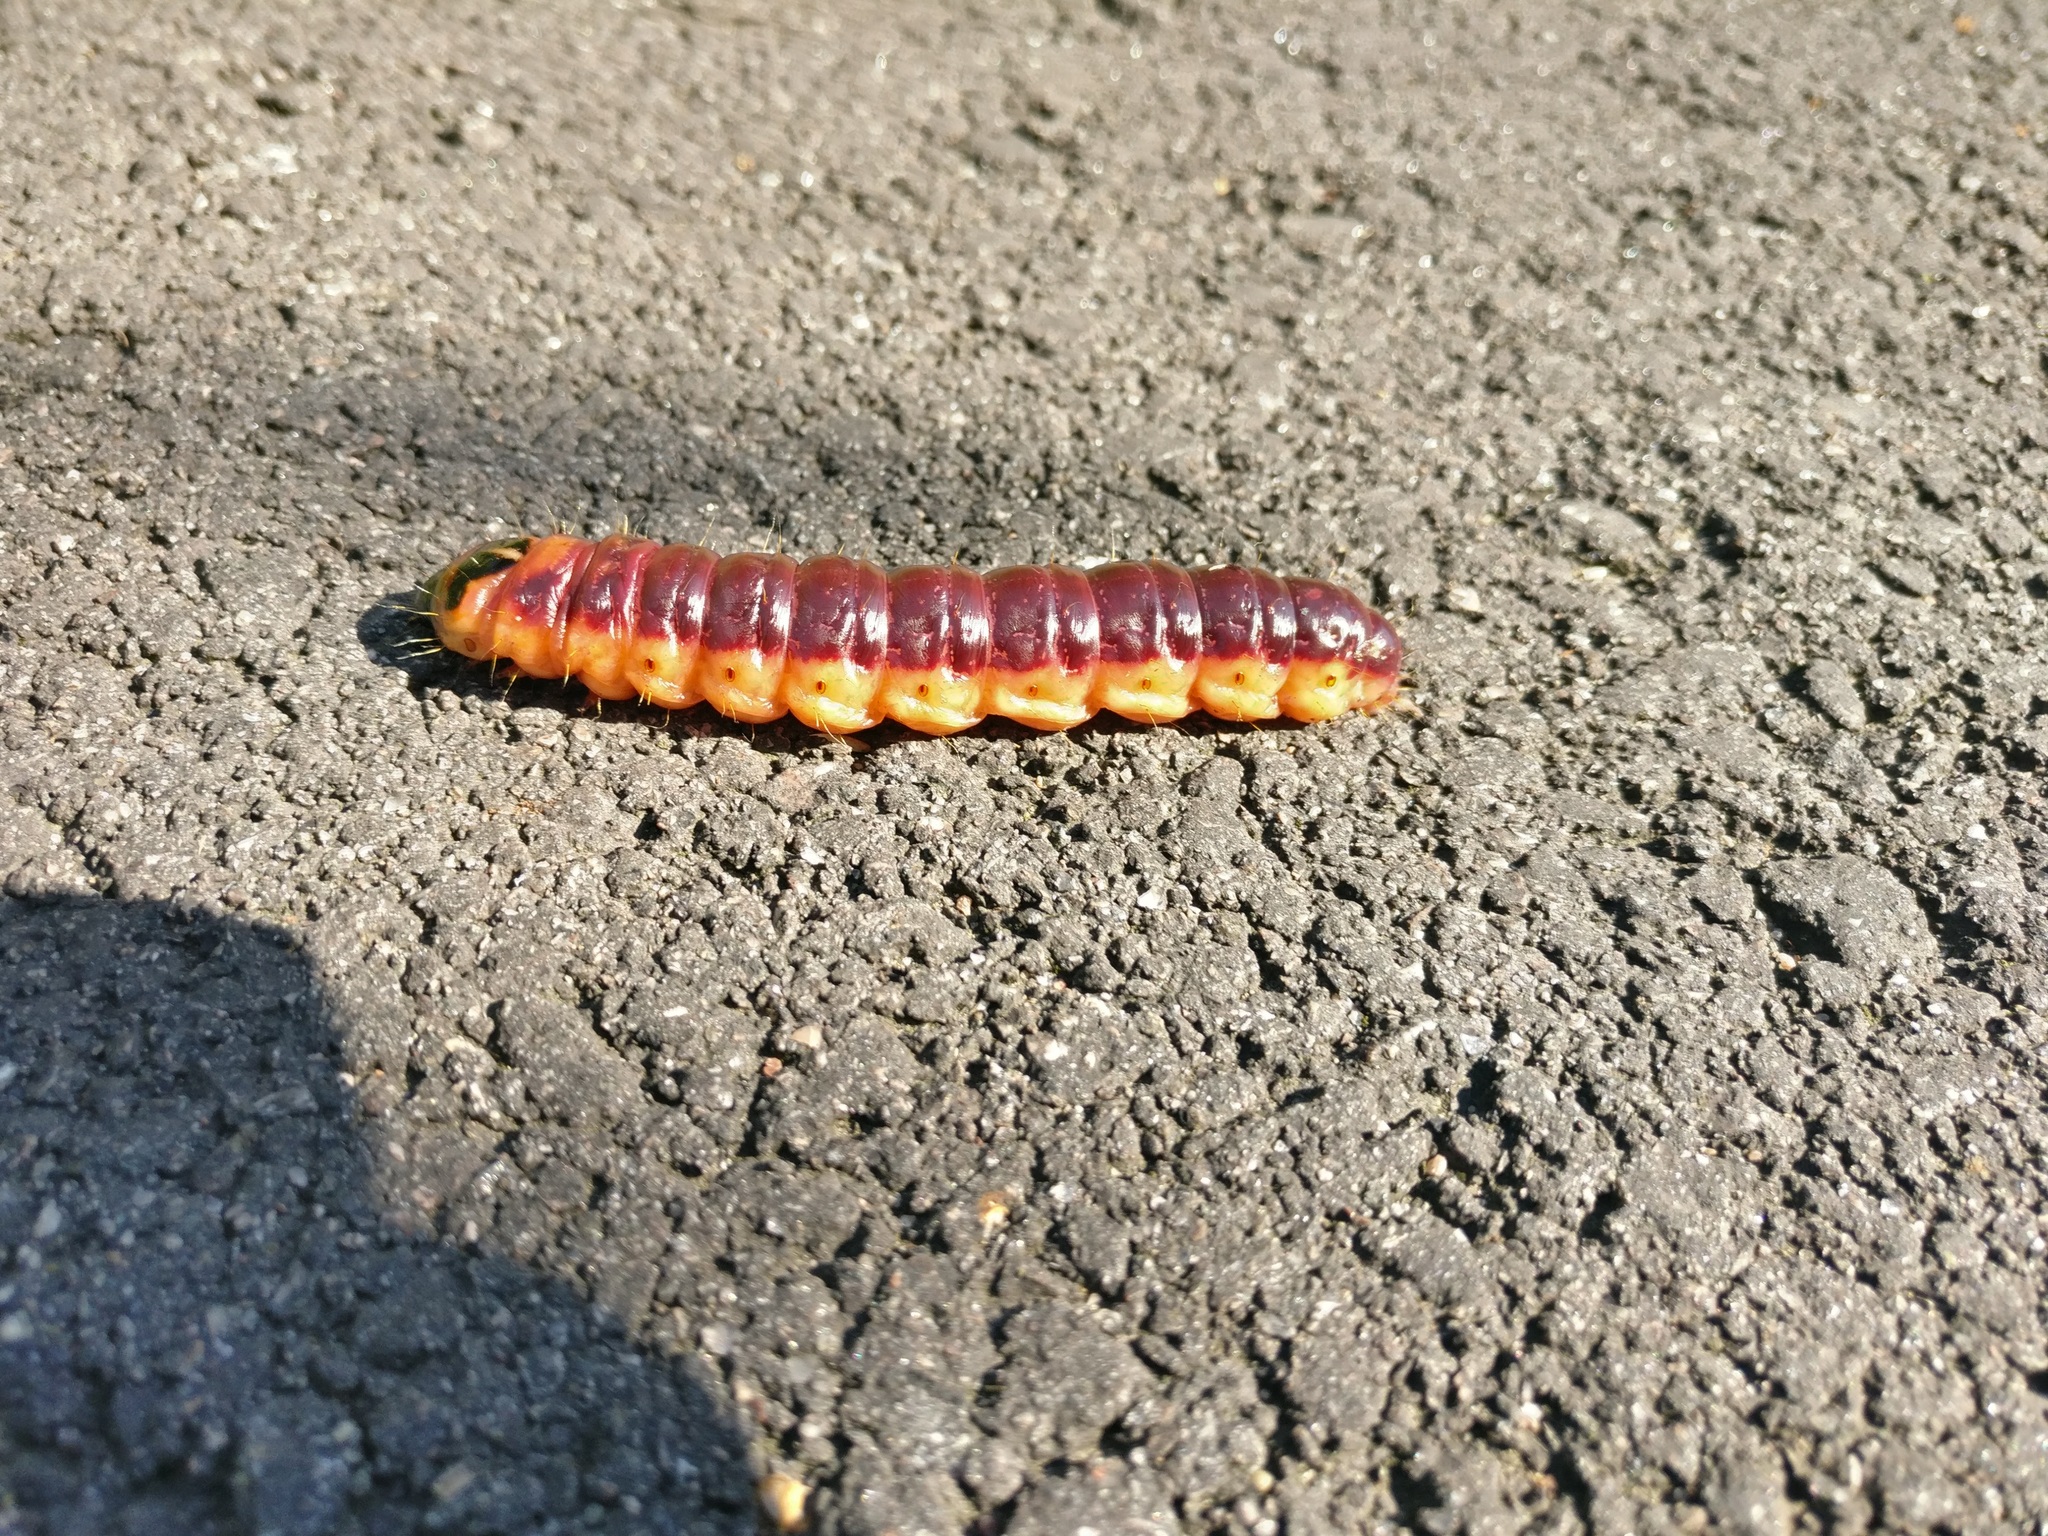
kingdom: Animalia
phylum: Arthropoda
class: Insecta
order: Lepidoptera
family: Cossidae
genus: Cossus
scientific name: Cossus cossus
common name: Goat moth
